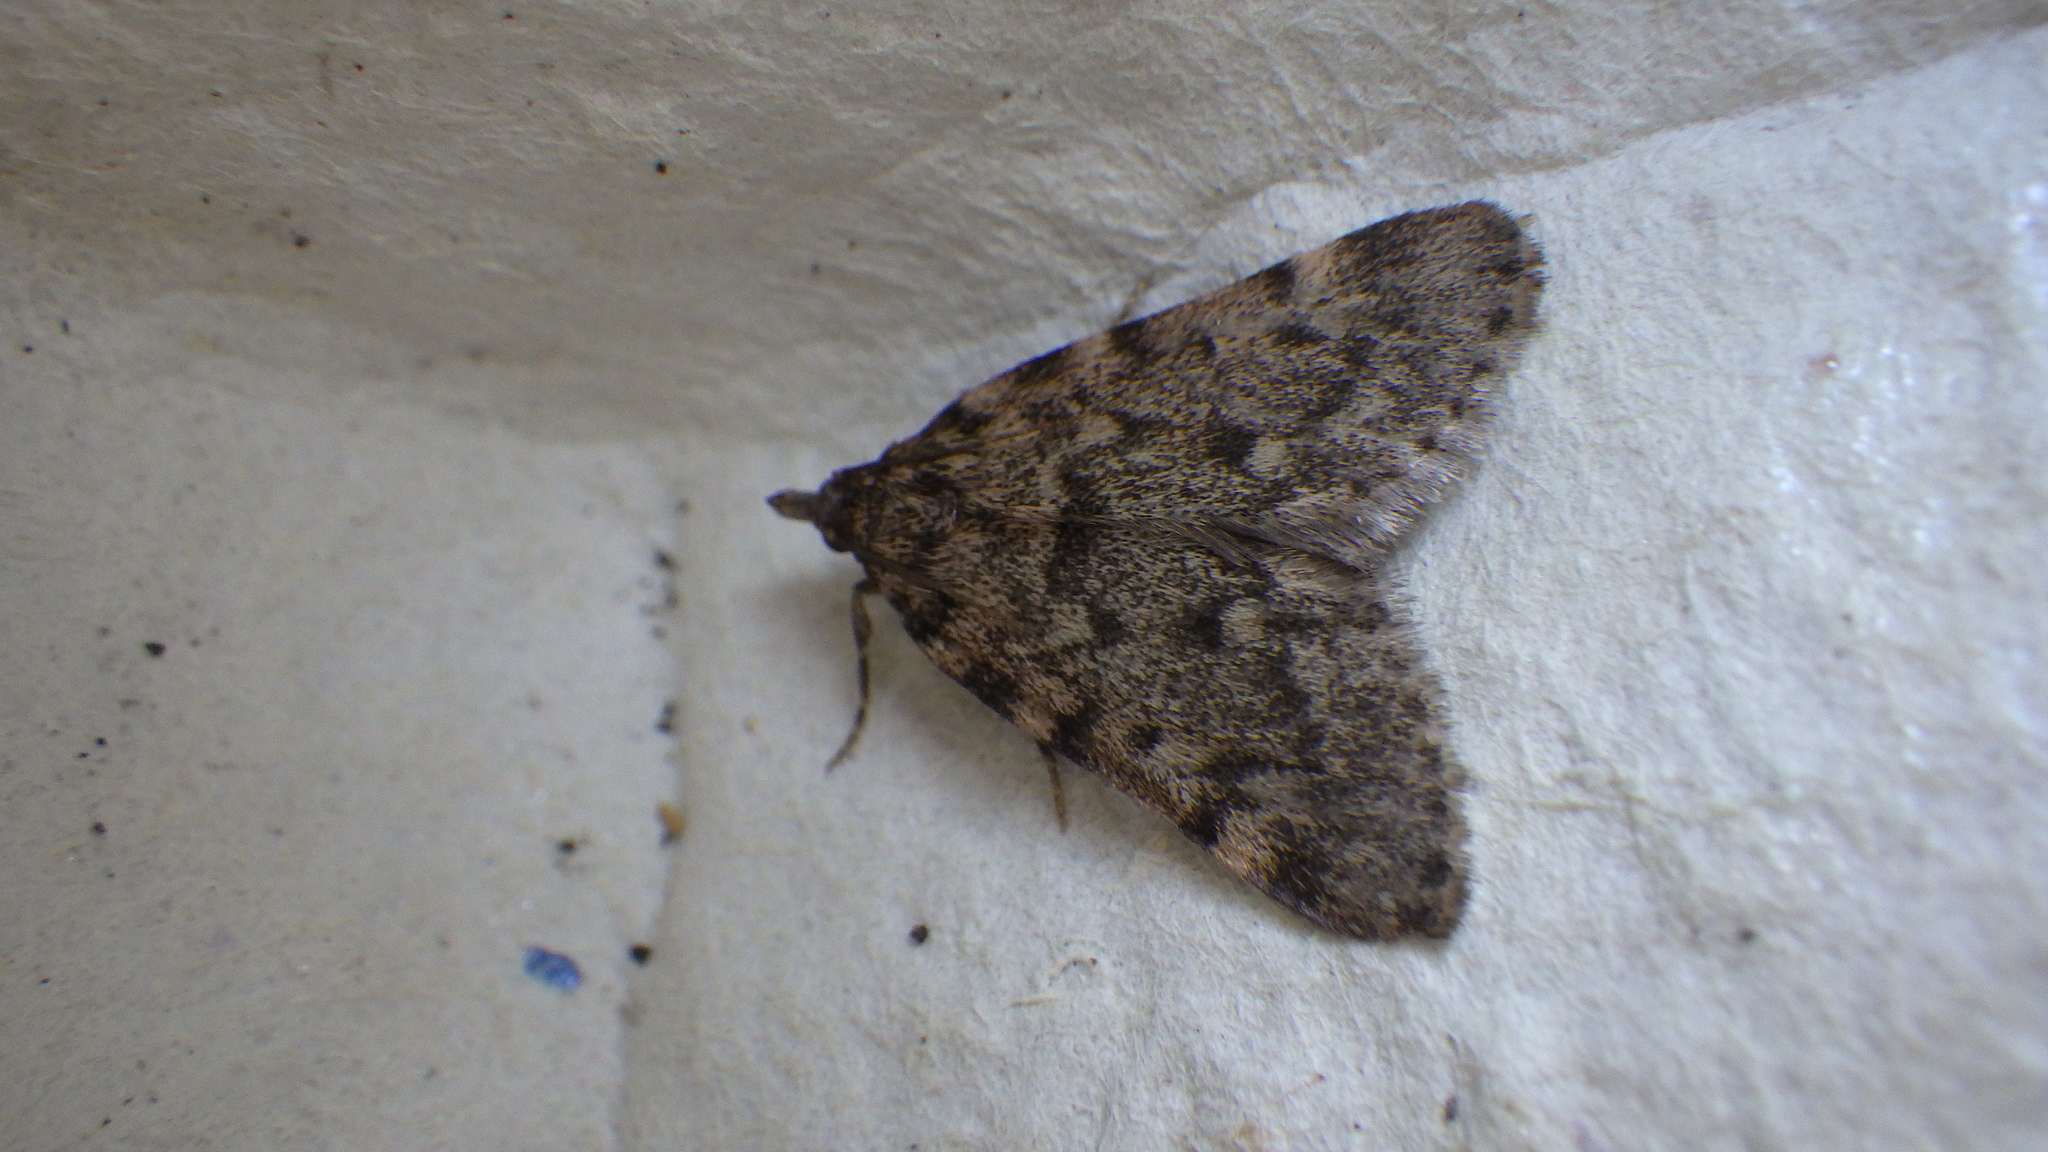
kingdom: Animalia
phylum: Arthropoda
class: Insecta
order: Lepidoptera
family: Pyralidae
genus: Aglossa
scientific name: Aglossa pinguinalis
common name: Large tabby
